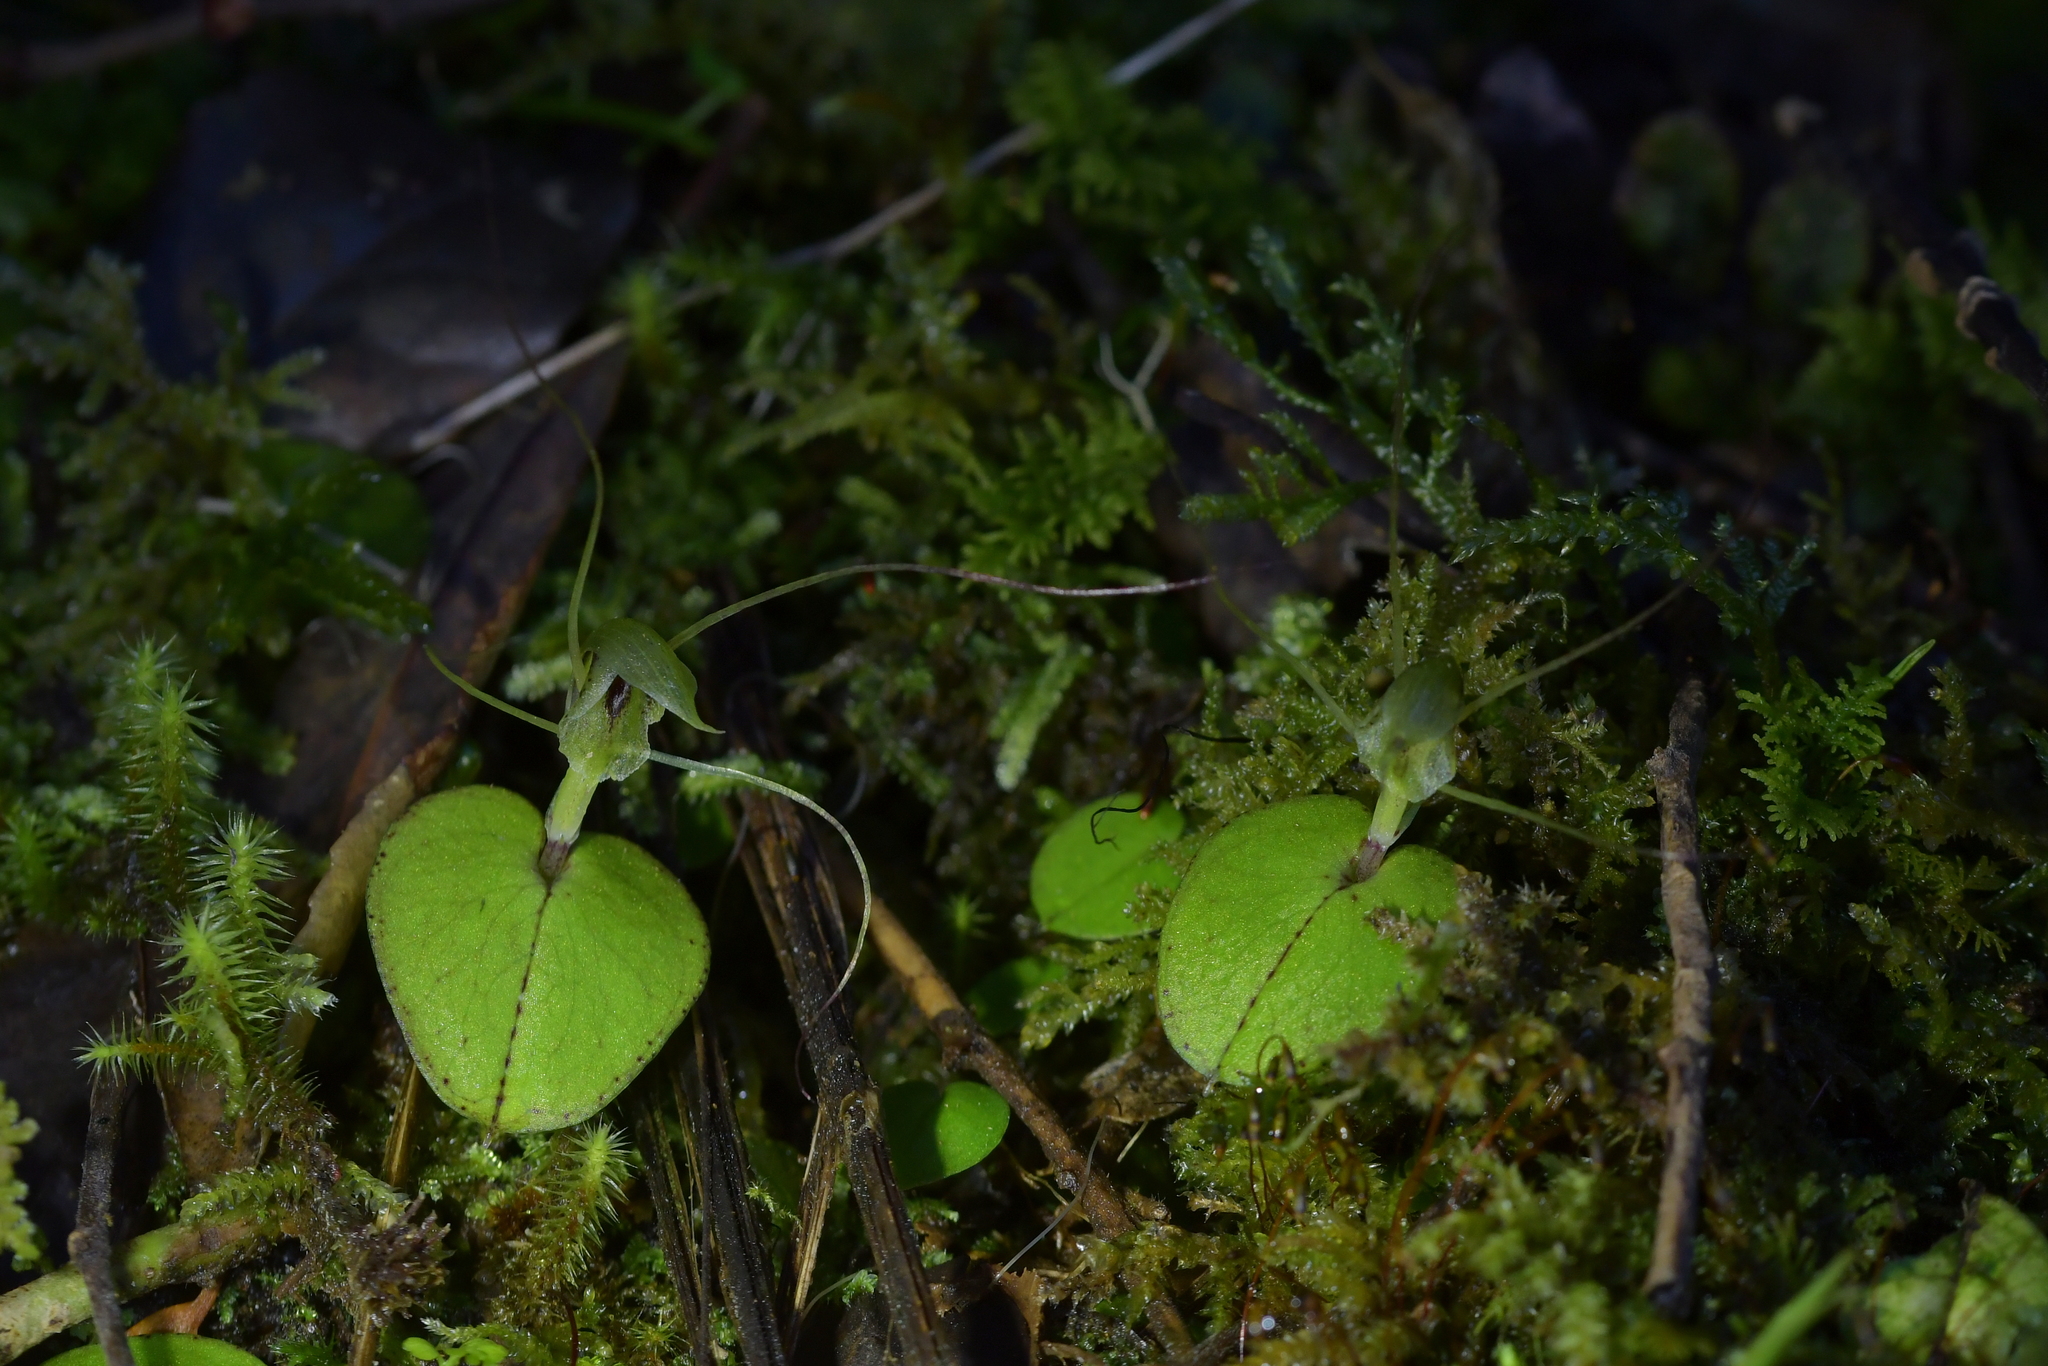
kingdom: Plantae
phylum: Tracheophyta
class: Liliopsida
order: Asparagales
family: Orchidaceae
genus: Corybas
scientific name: Corybas papa
